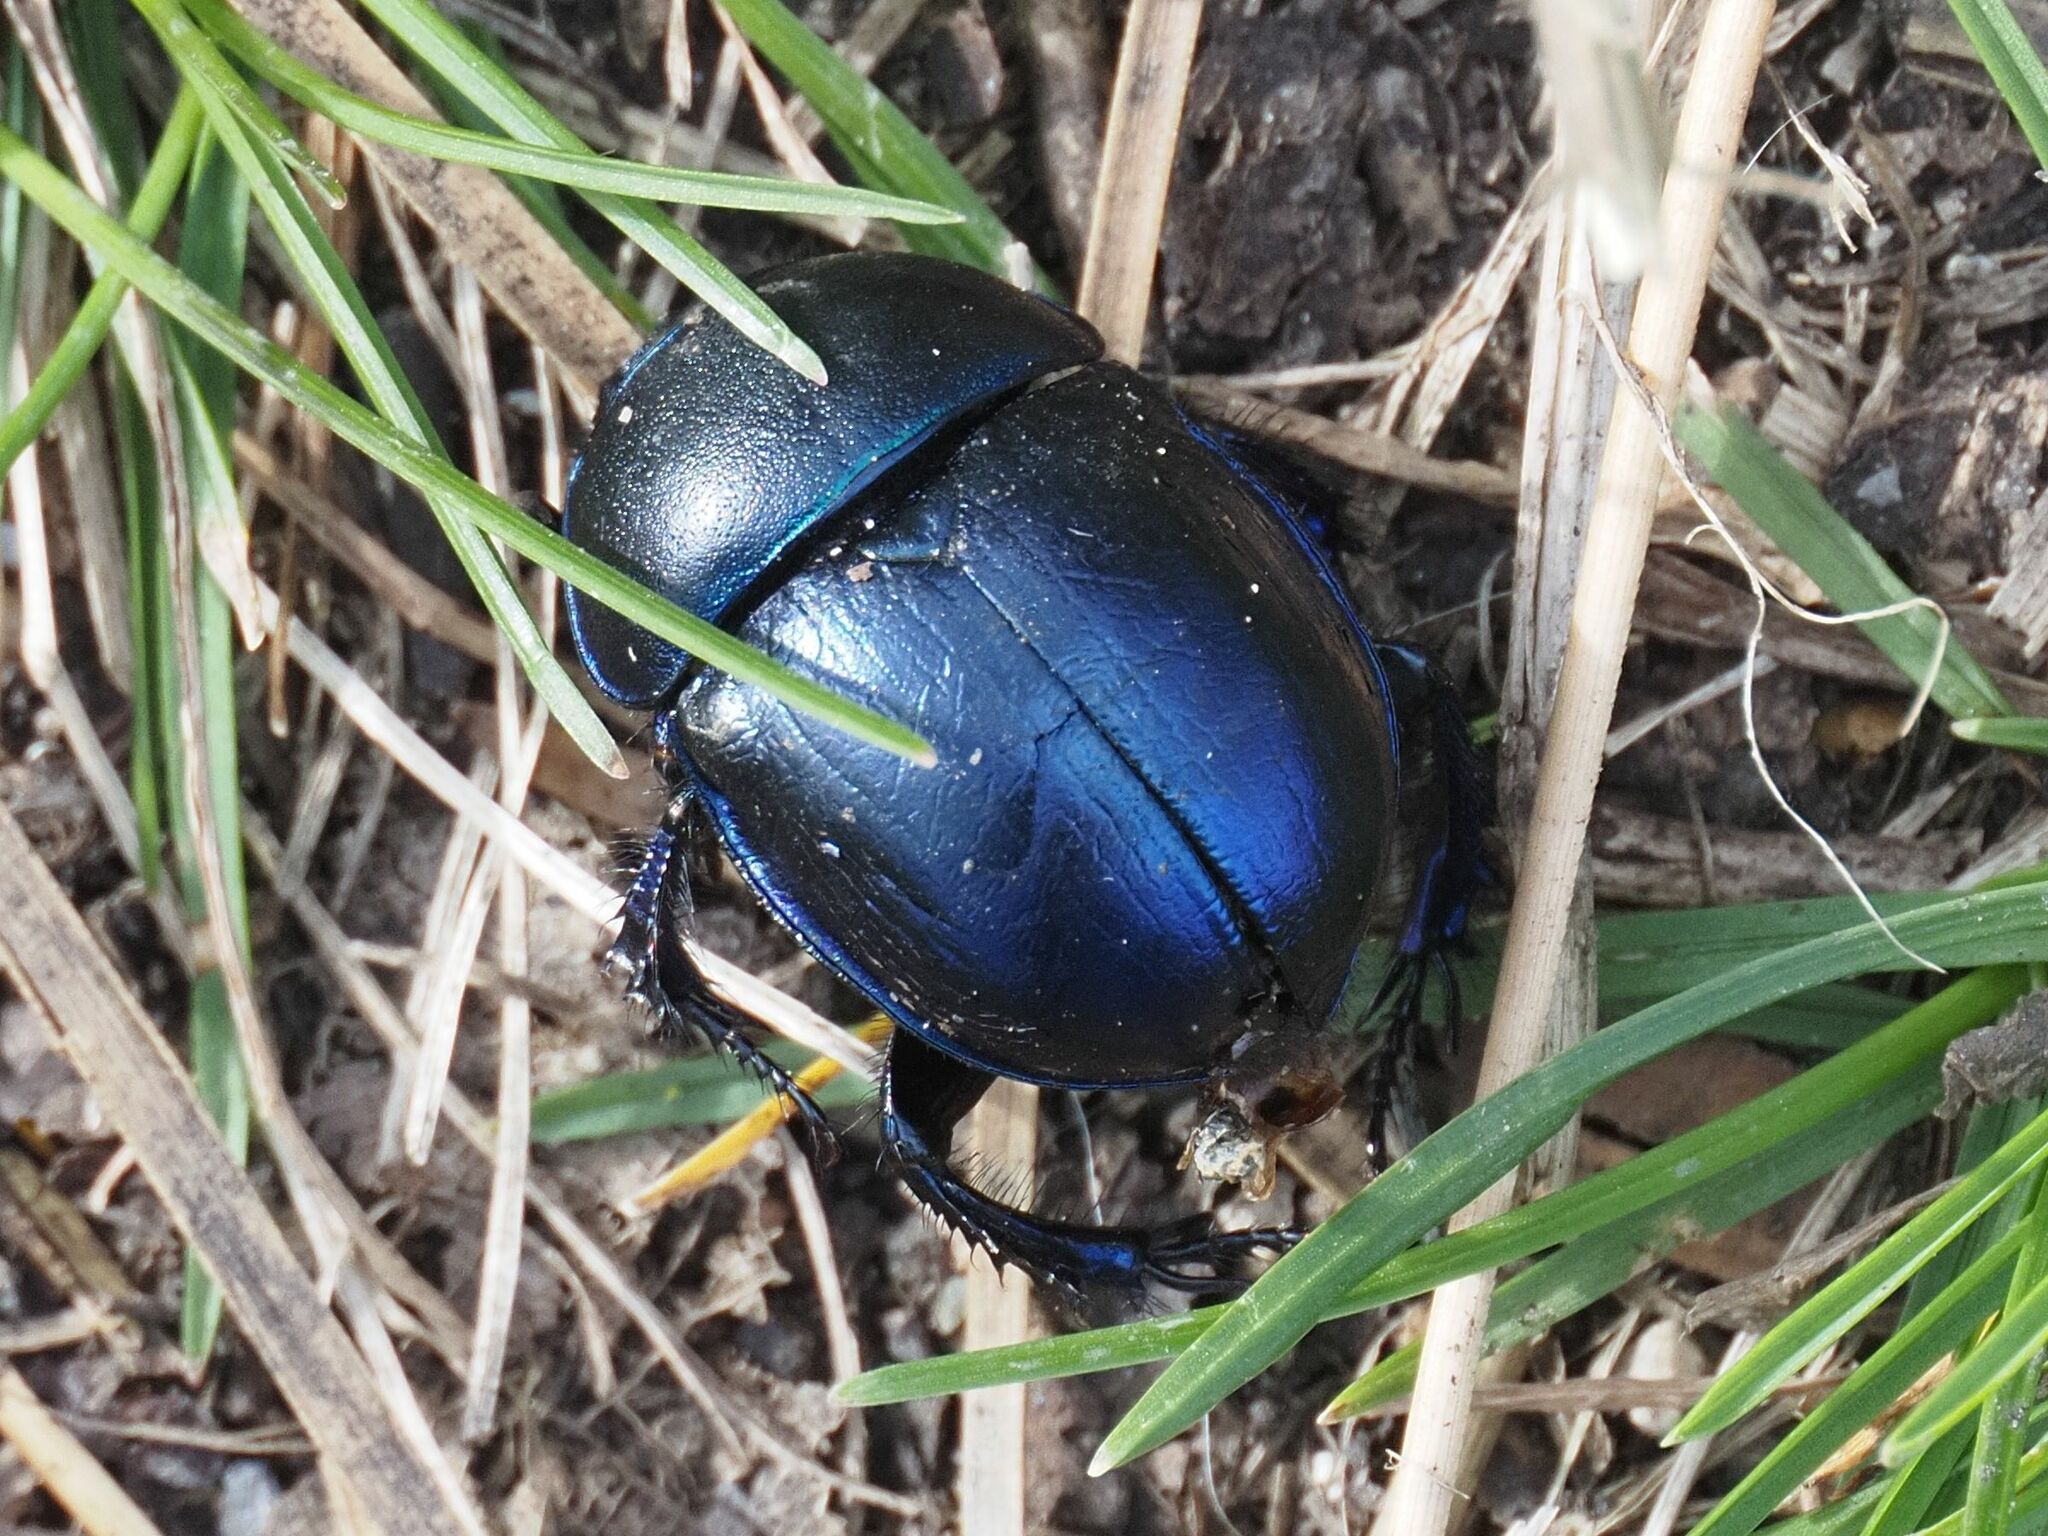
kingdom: Animalia
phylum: Arthropoda
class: Insecta
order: Coleoptera
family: Geotrupidae
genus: Trypocopris
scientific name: Trypocopris vernalis
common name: Spring dumbledor
